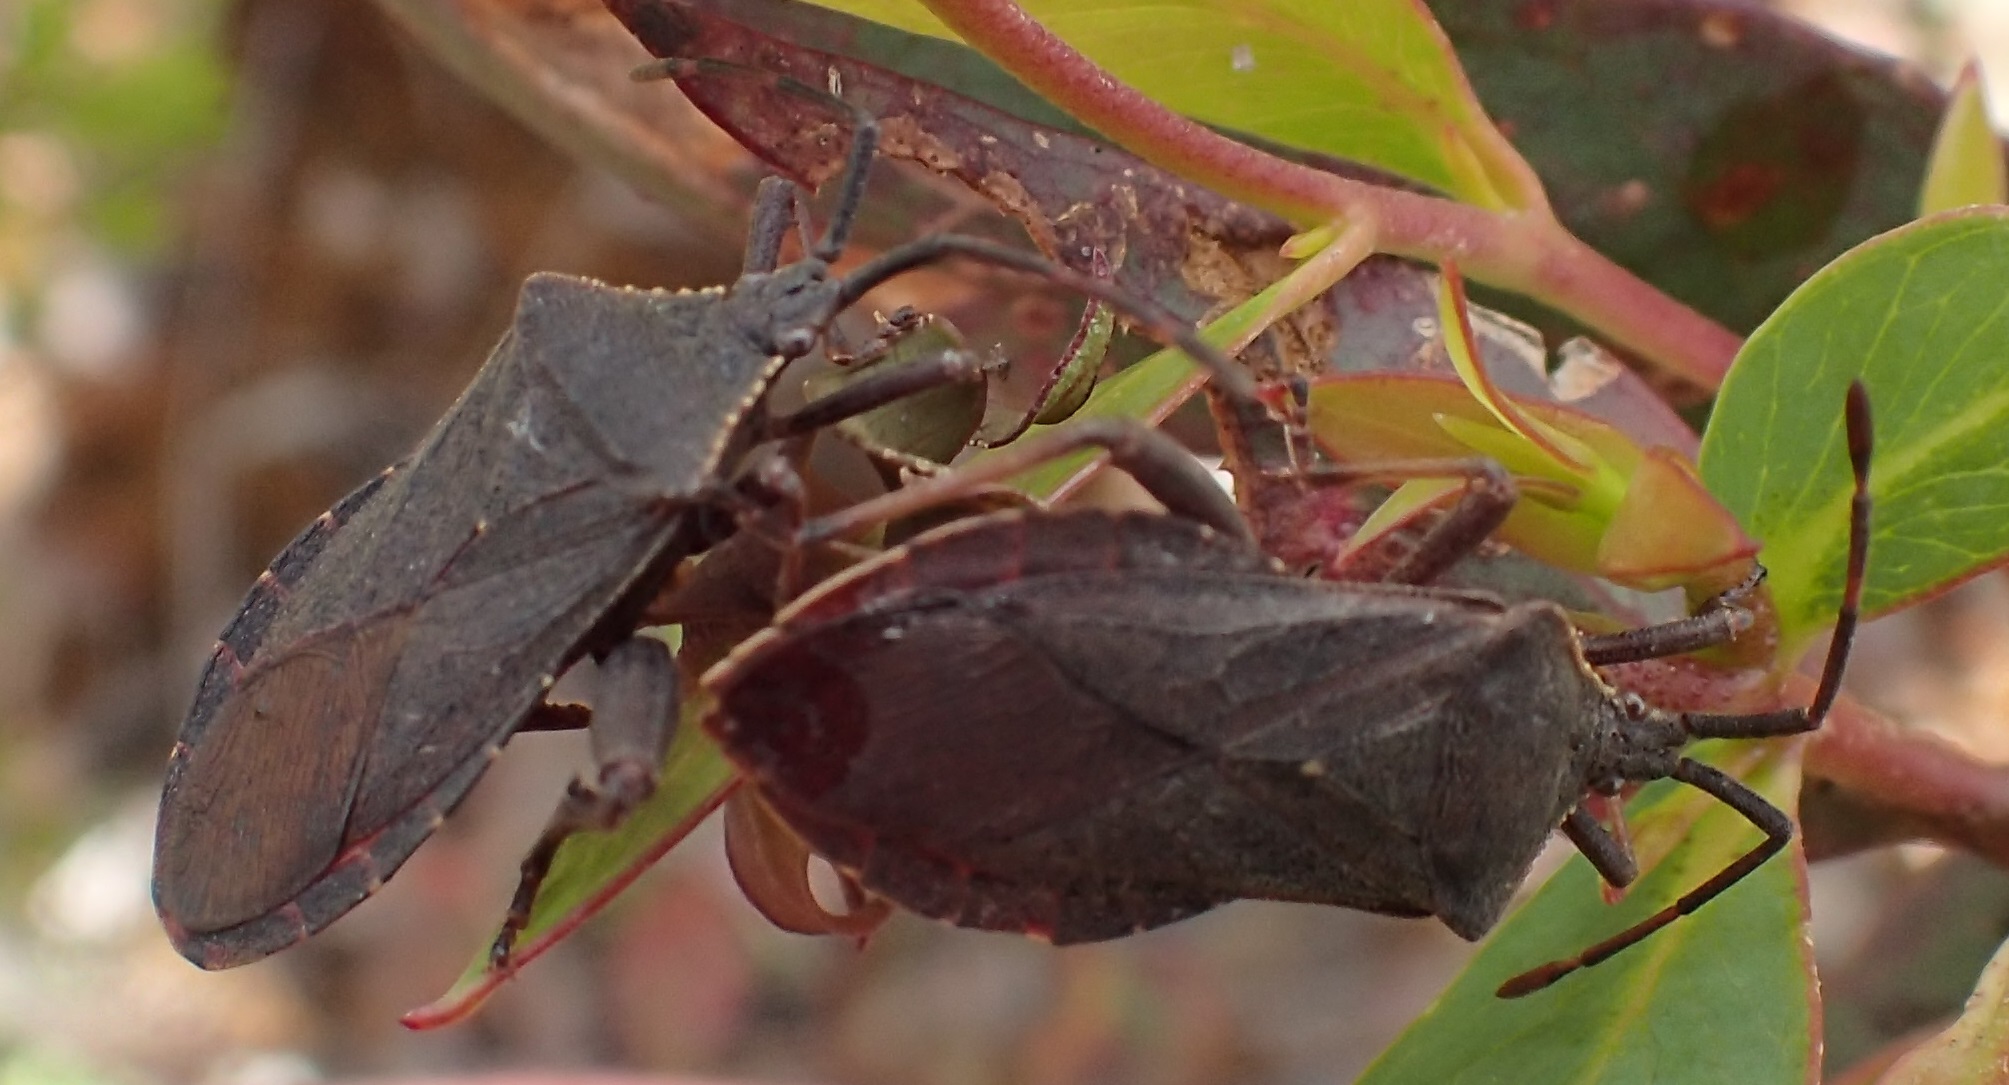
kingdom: Animalia
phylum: Arthropoda
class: Insecta
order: Hemiptera
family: Coreidae
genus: Amorbus
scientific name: Amorbus obscuricornis
